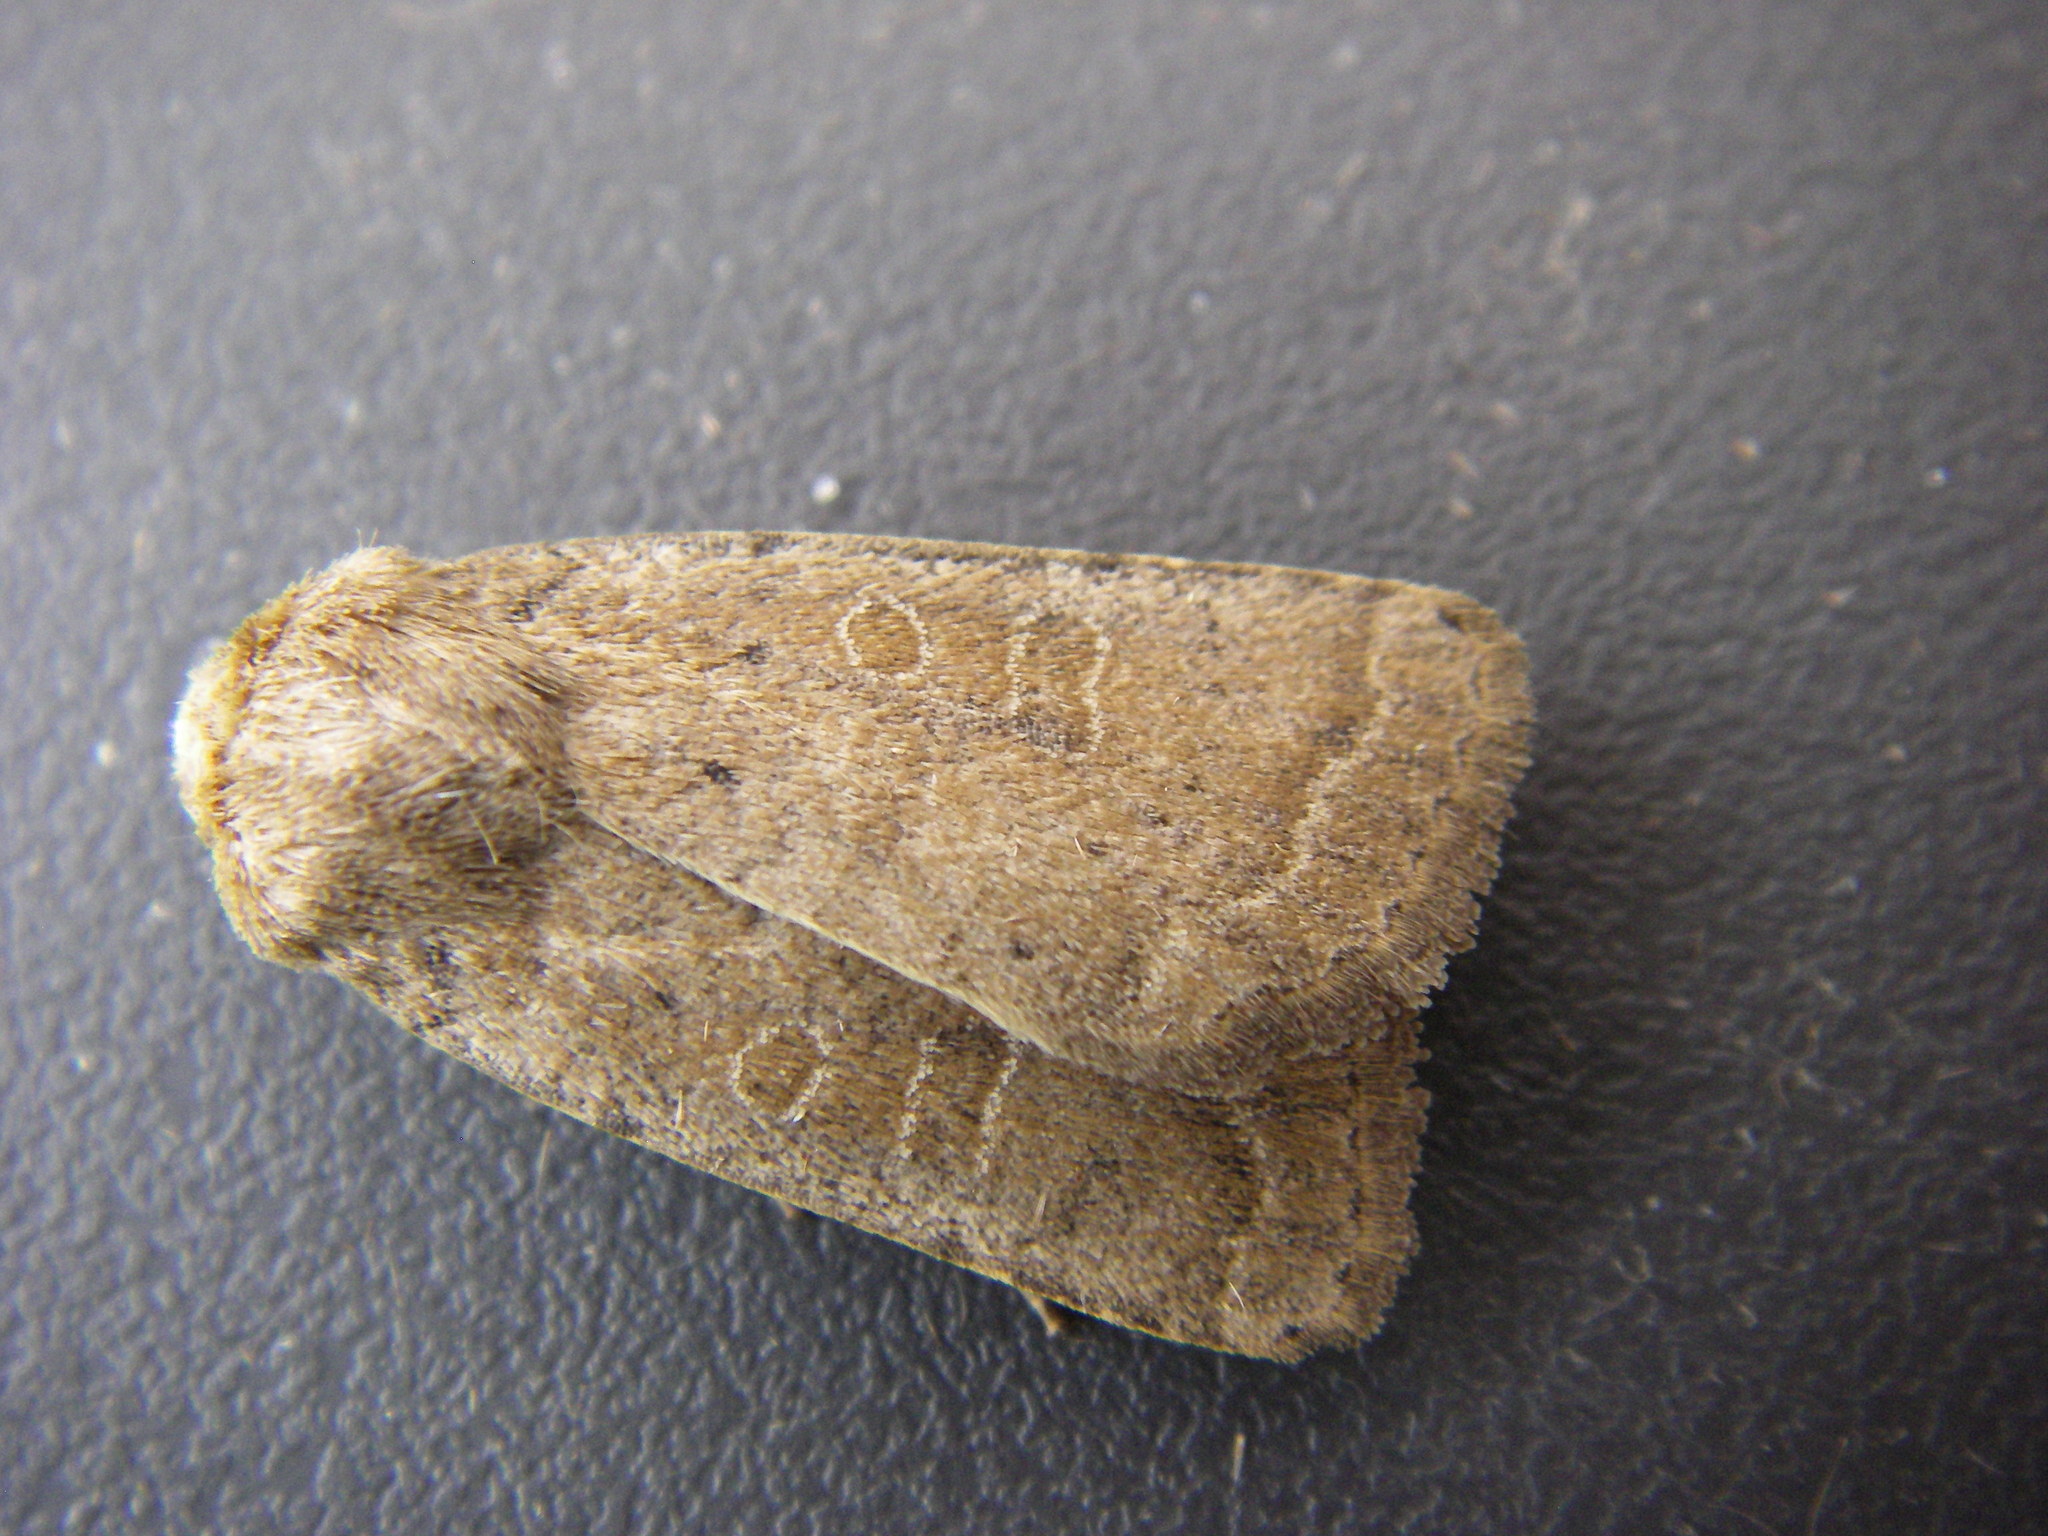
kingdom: Animalia
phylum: Arthropoda
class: Insecta
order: Lepidoptera
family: Noctuidae
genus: Hoplodrina
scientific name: Hoplodrina octogenaria
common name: Uncertain
